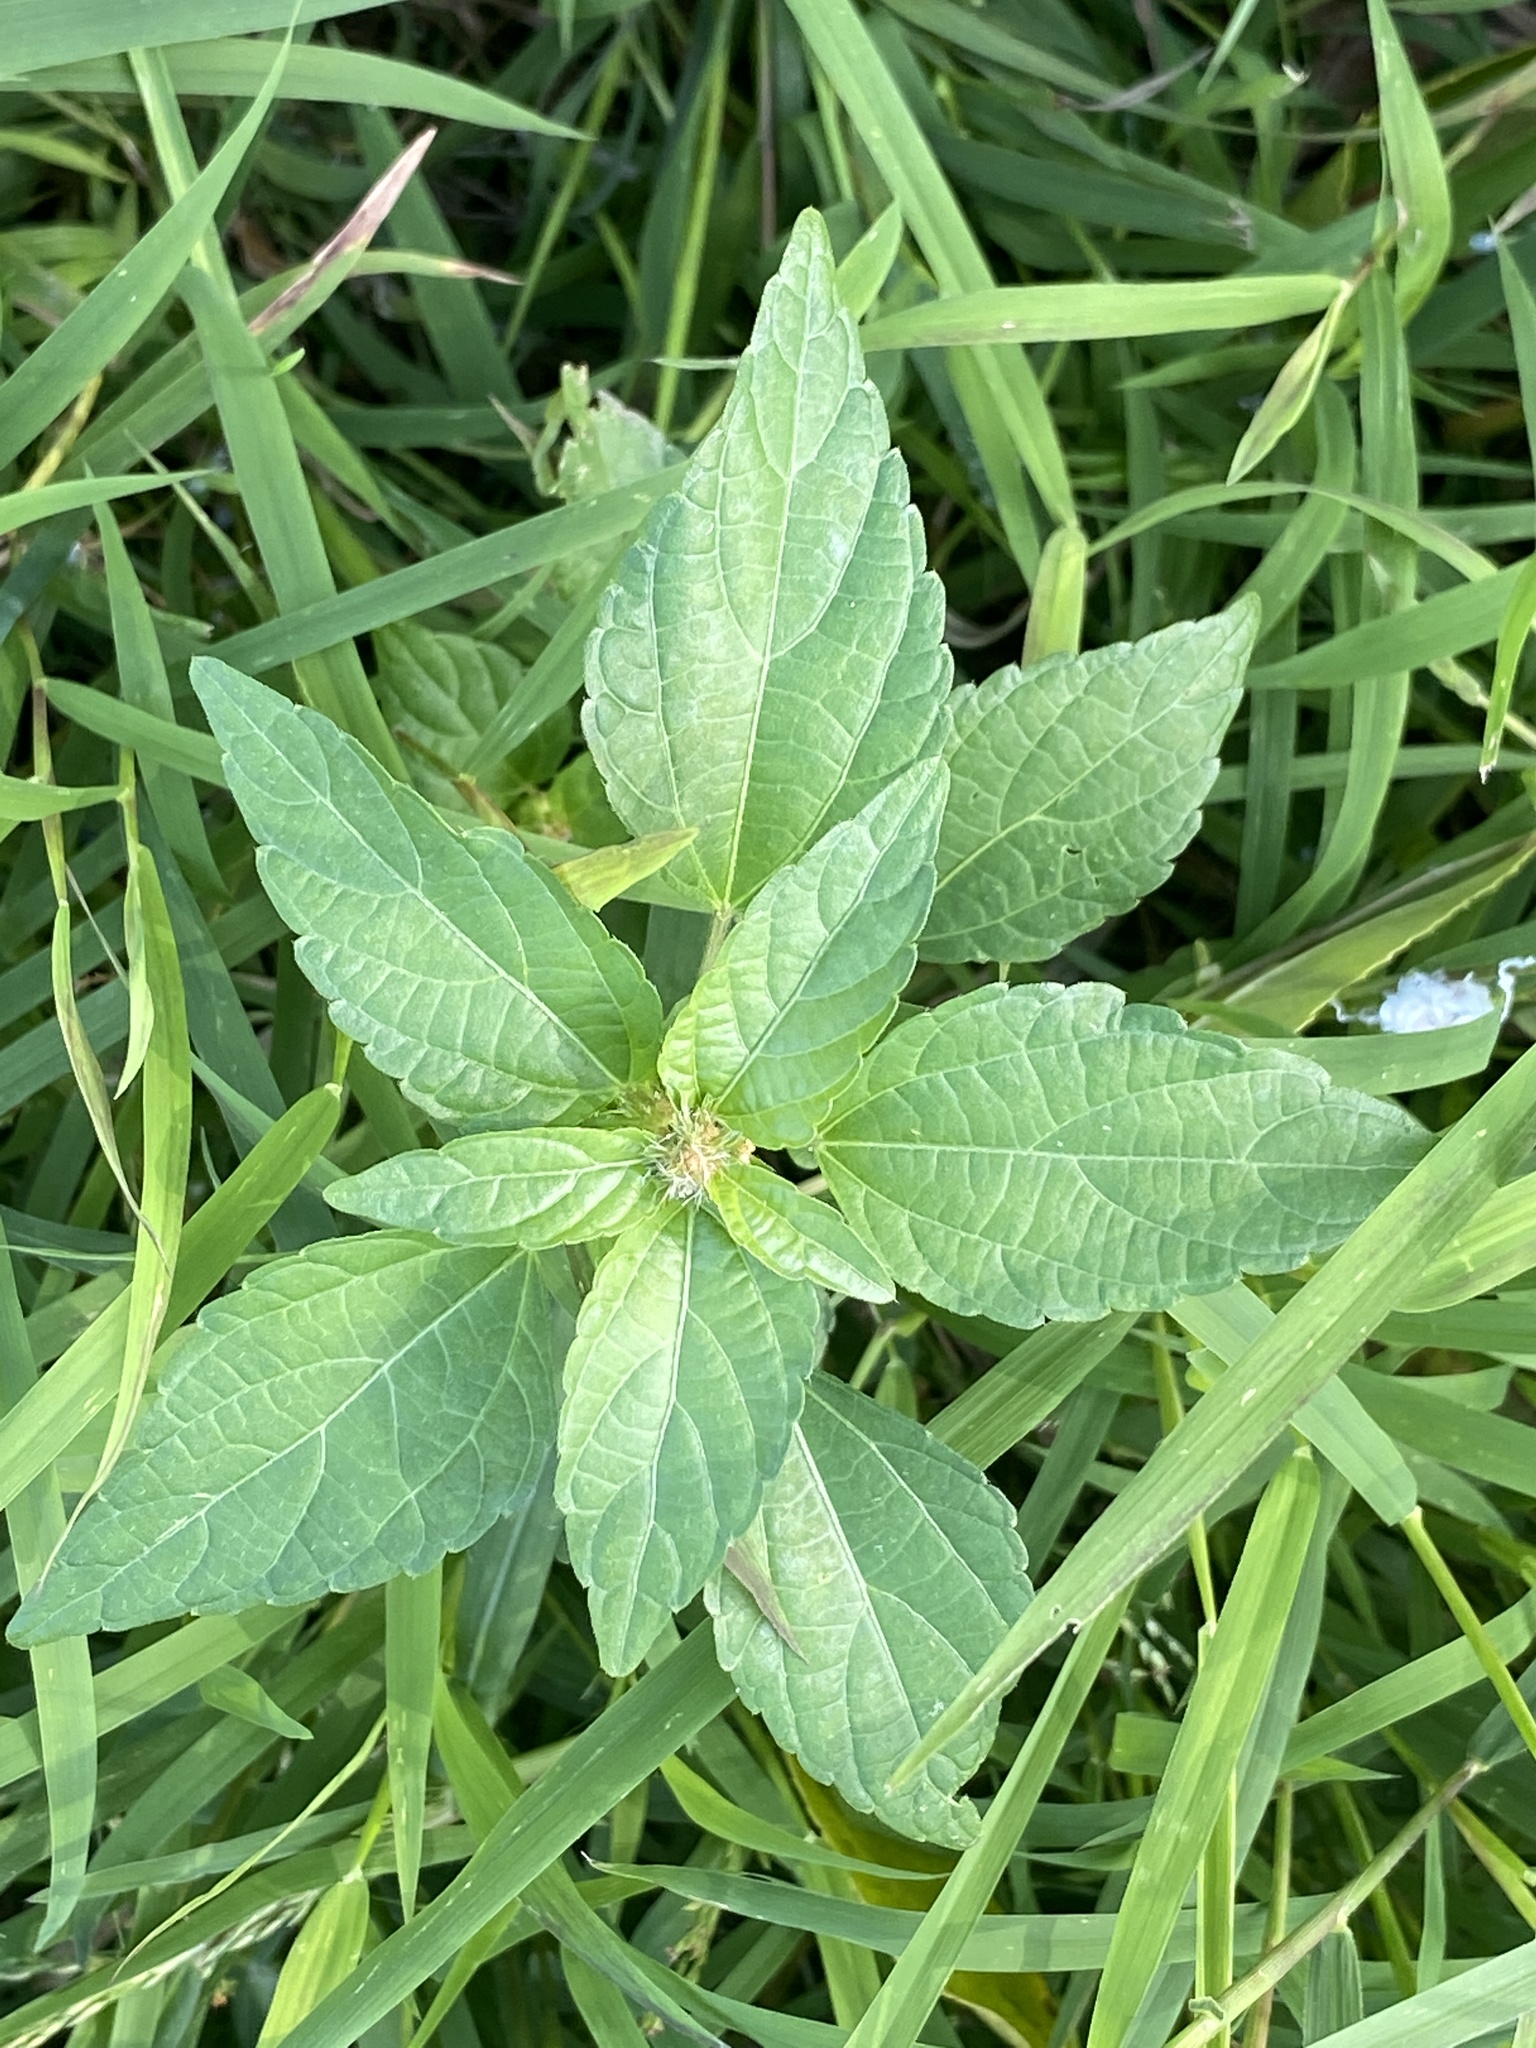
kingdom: Plantae
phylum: Tracheophyta
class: Magnoliopsida
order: Malpighiales
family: Euphorbiaceae
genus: Acalypha
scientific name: Acalypha rhomboidea
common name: Rhombic copperleaf
